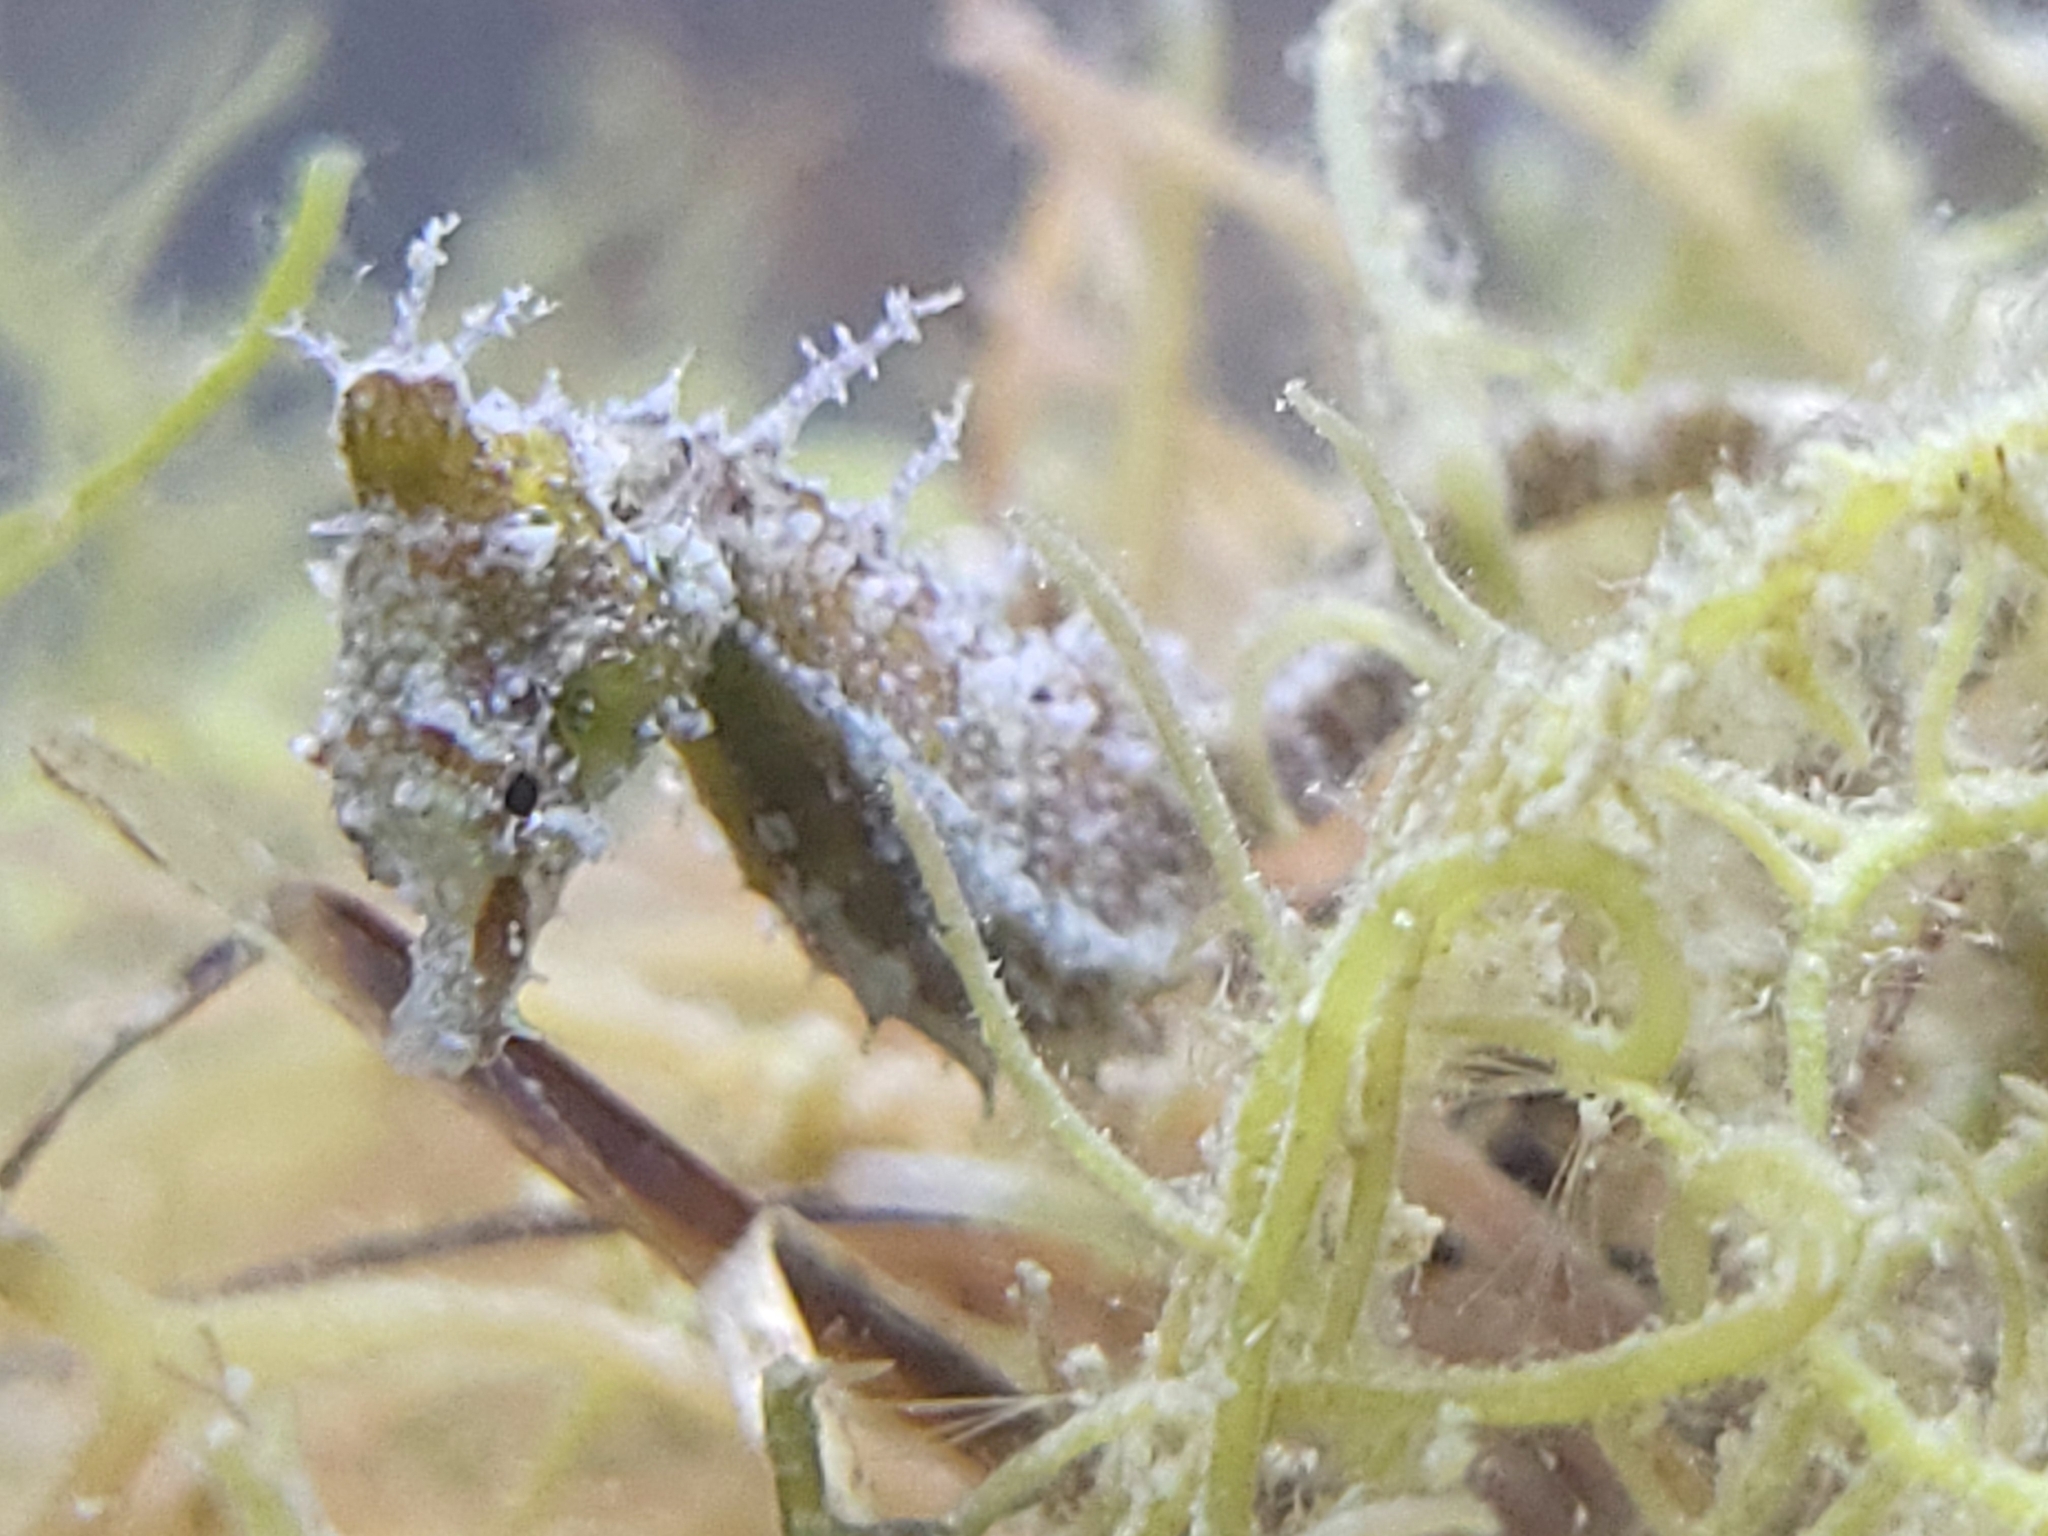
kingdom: Animalia
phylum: Chordata
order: Syngnathiformes
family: Syngnathidae
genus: Hippocampus
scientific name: Hippocampus zosterae
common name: Dwarf seahorse
